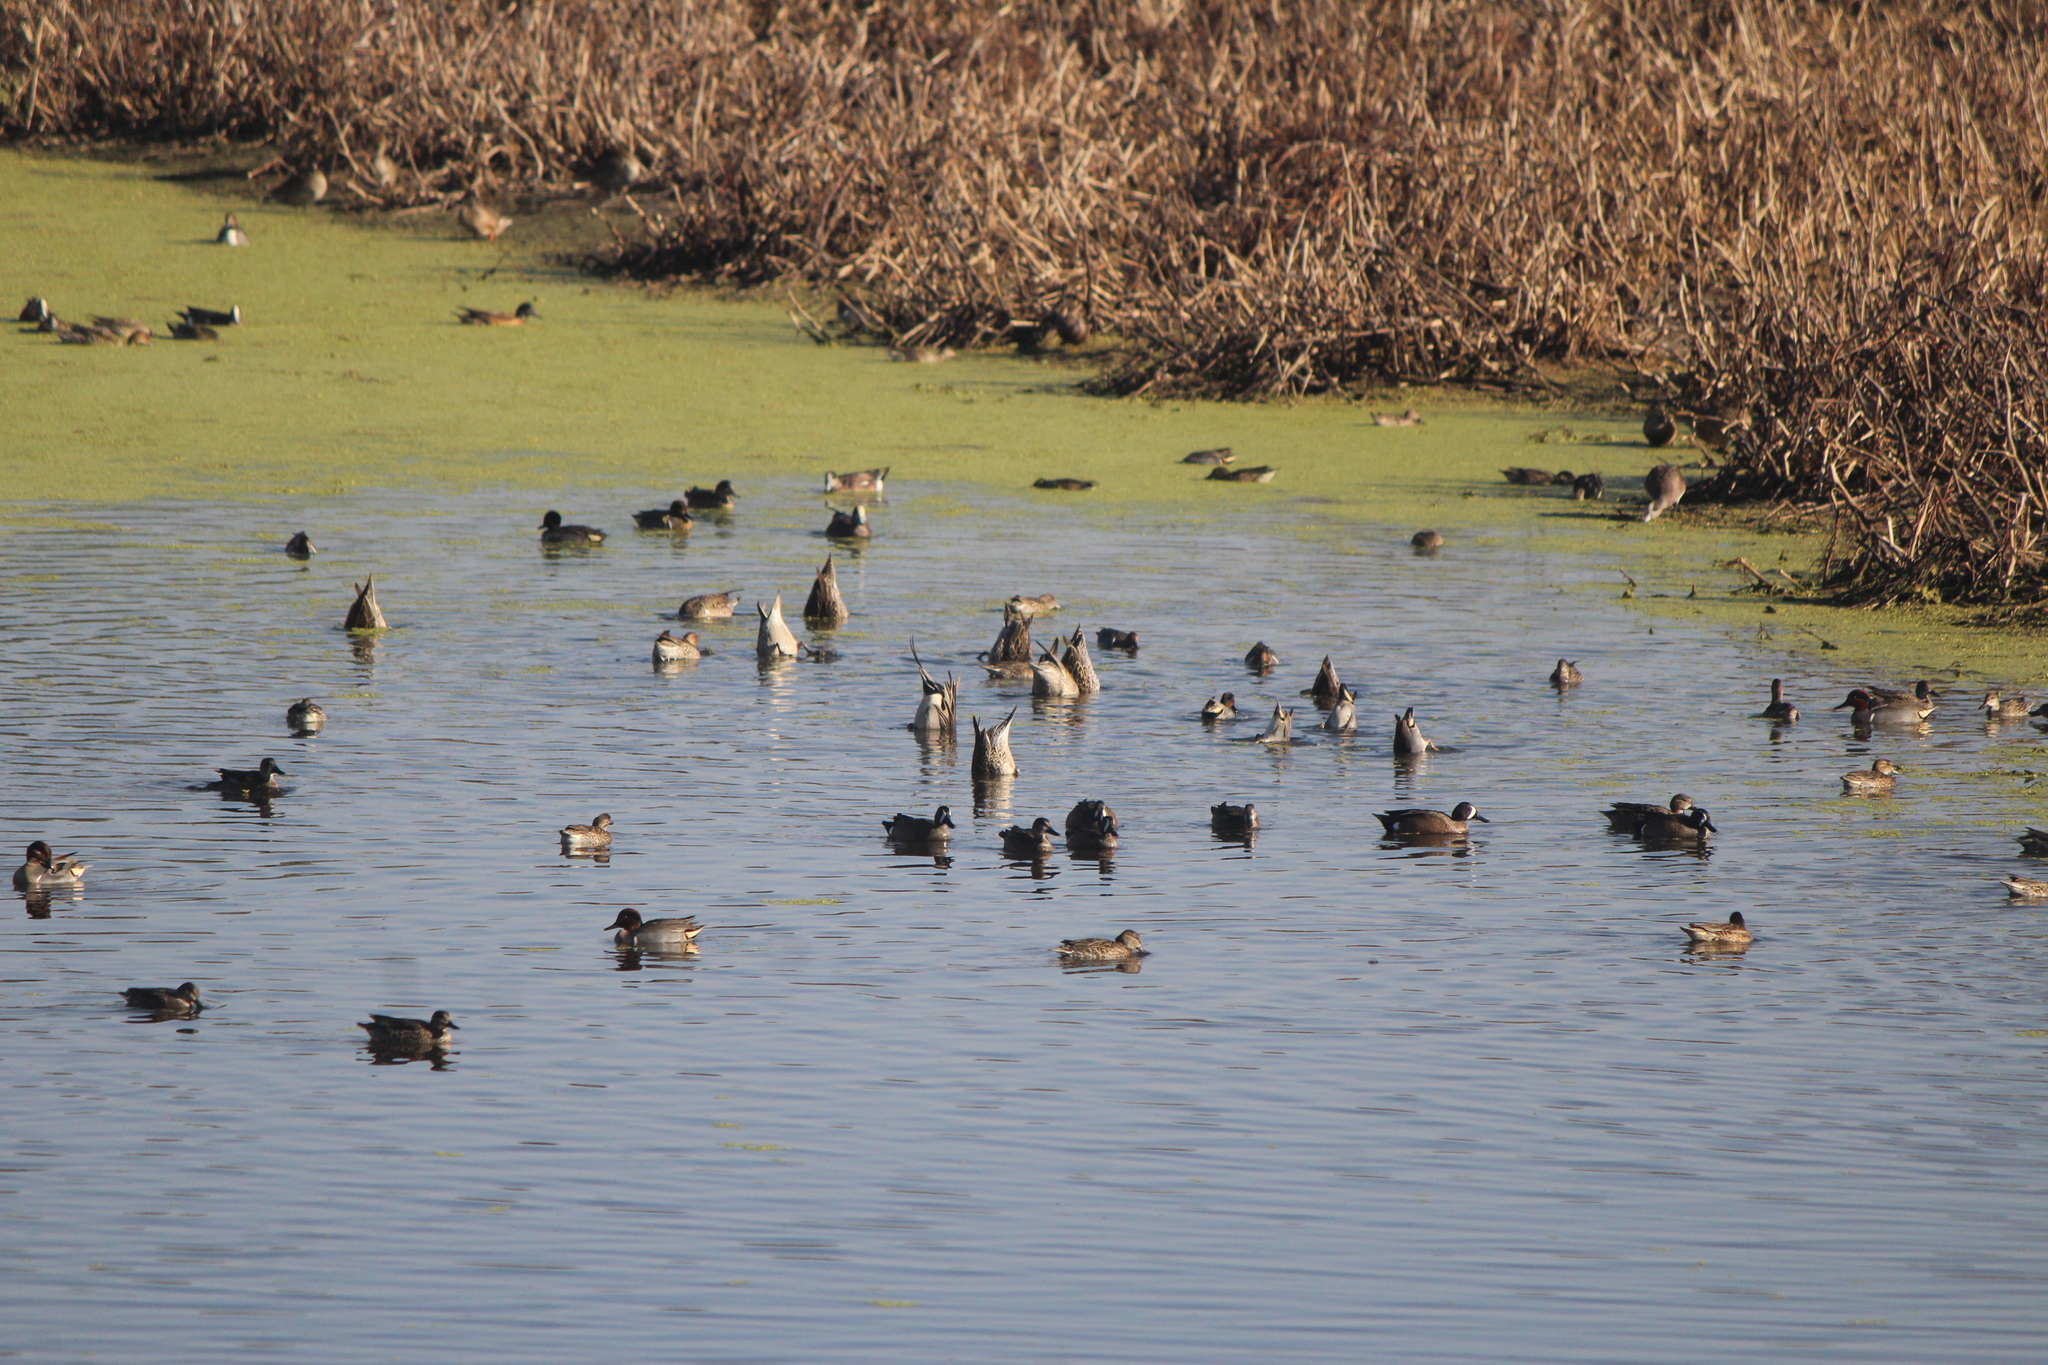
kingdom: Animalia
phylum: Chordata
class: Aves
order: Anseriformes
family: Anatidae
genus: Spatula
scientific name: Spatula discors
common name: Blue-winged teal
